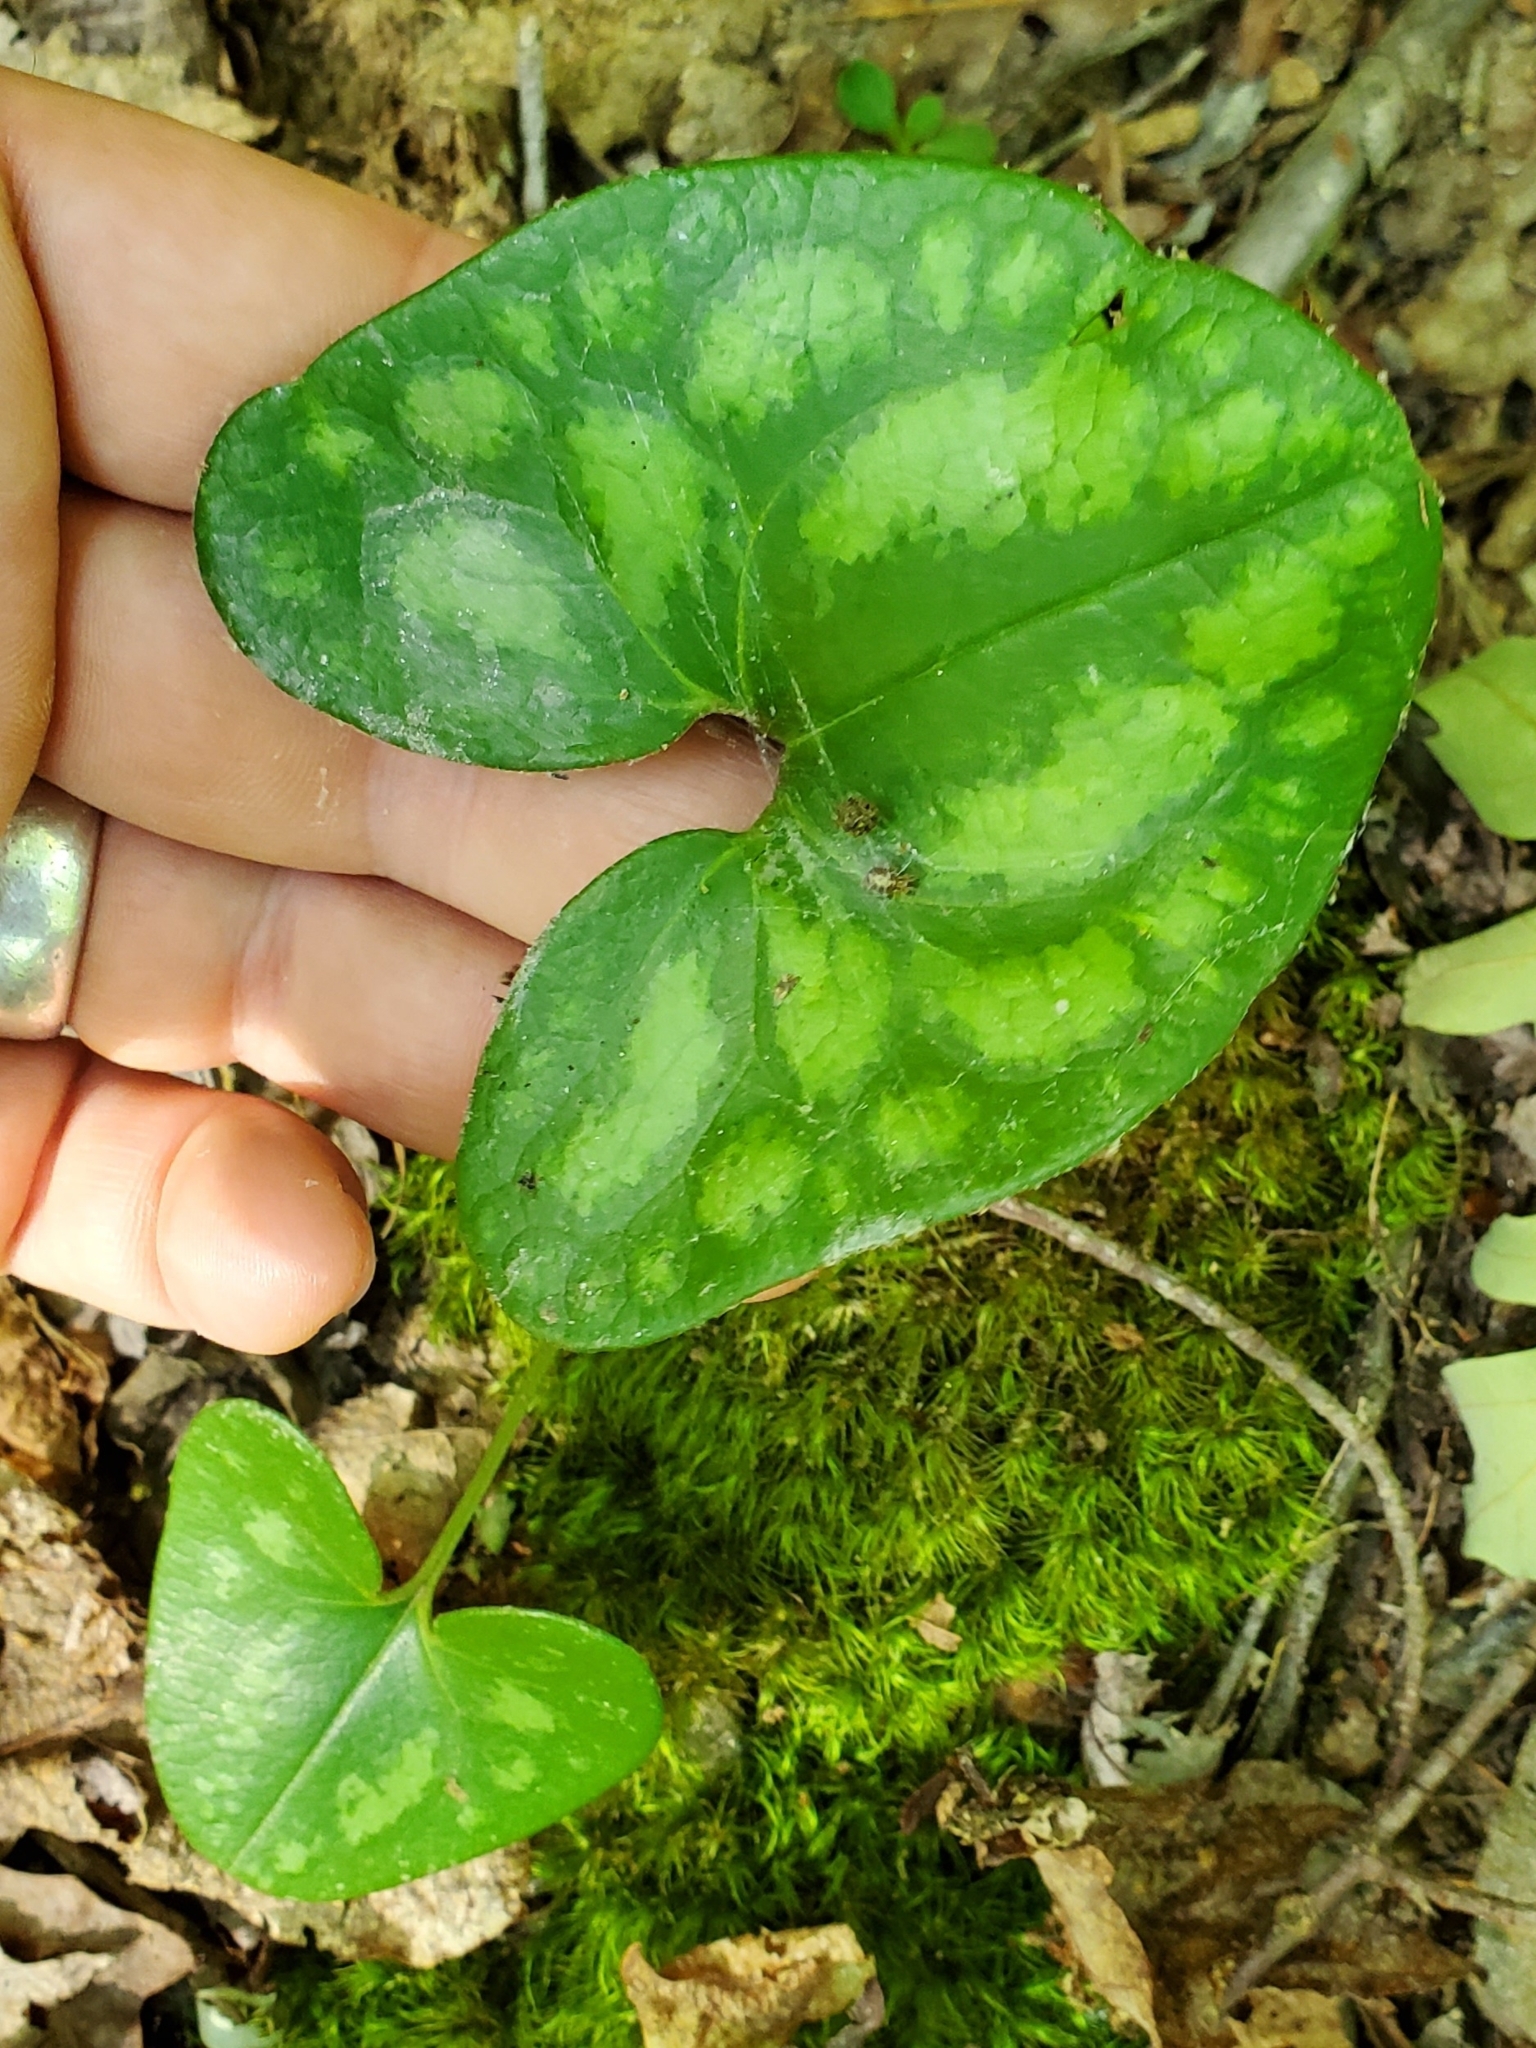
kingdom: Plantae
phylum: Tracheophyta
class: Magnoliopsida
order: Piperales
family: Aristolochiaceae
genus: Hexastylis
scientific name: Hexastylis arifolia
